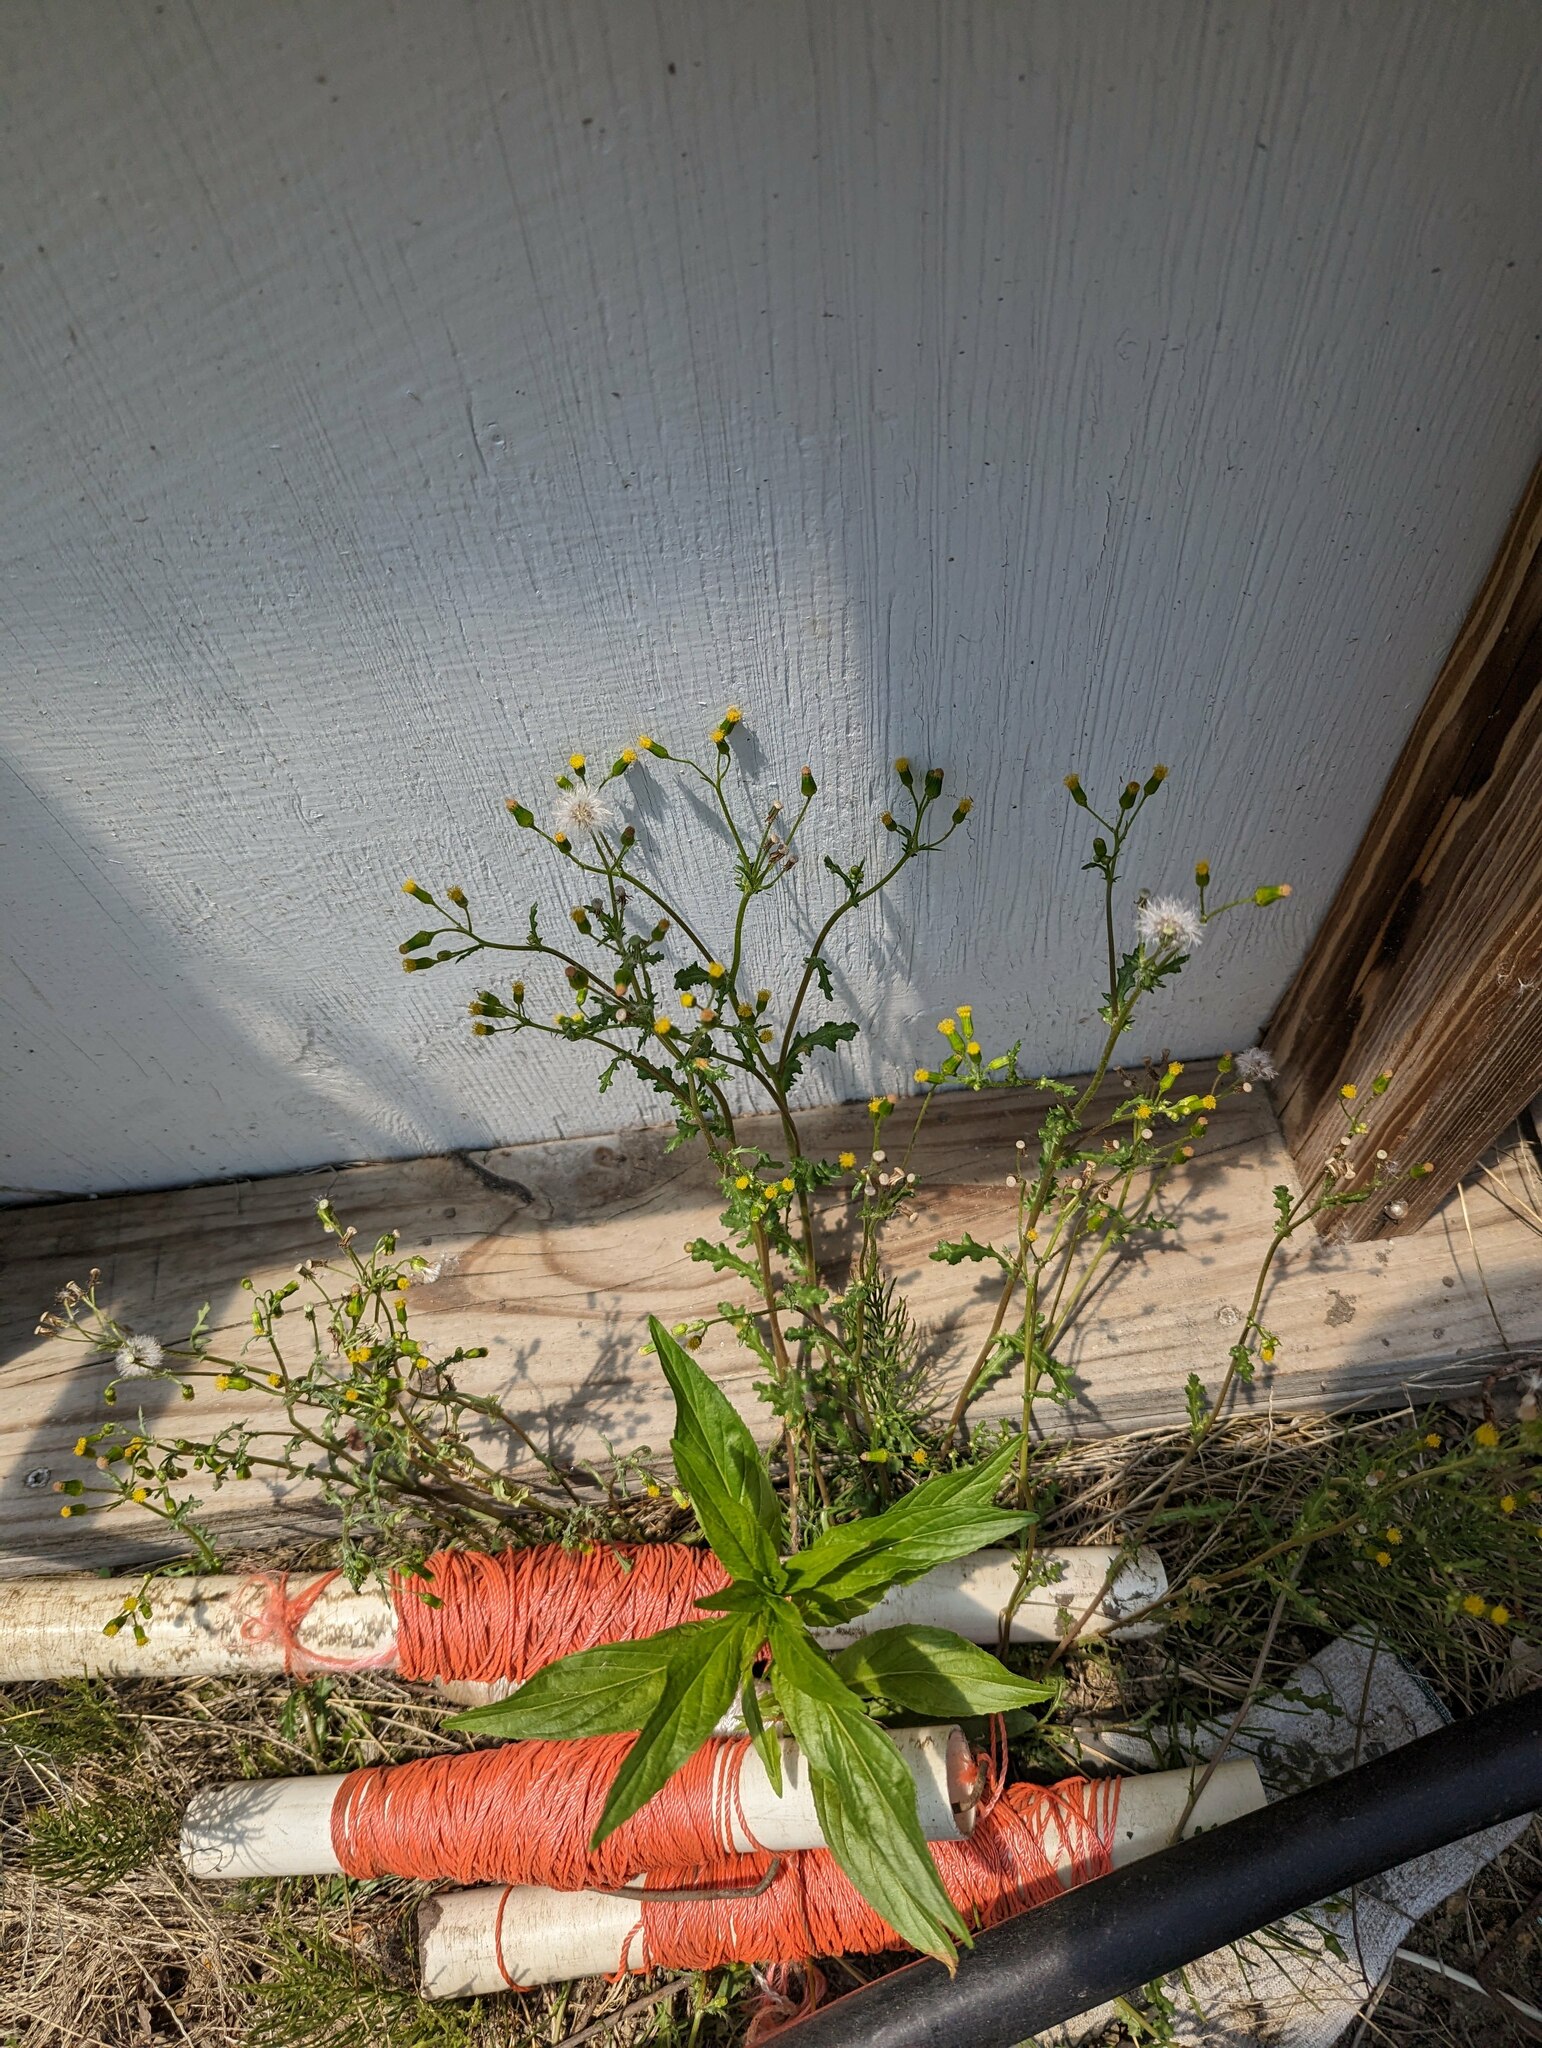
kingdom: Plantae
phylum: Tracheophyta
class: Magnoliopsida
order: Asterales
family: Asteraceae
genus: Senecio
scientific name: Senecio vulgaris
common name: Old-man-in-the-spring
